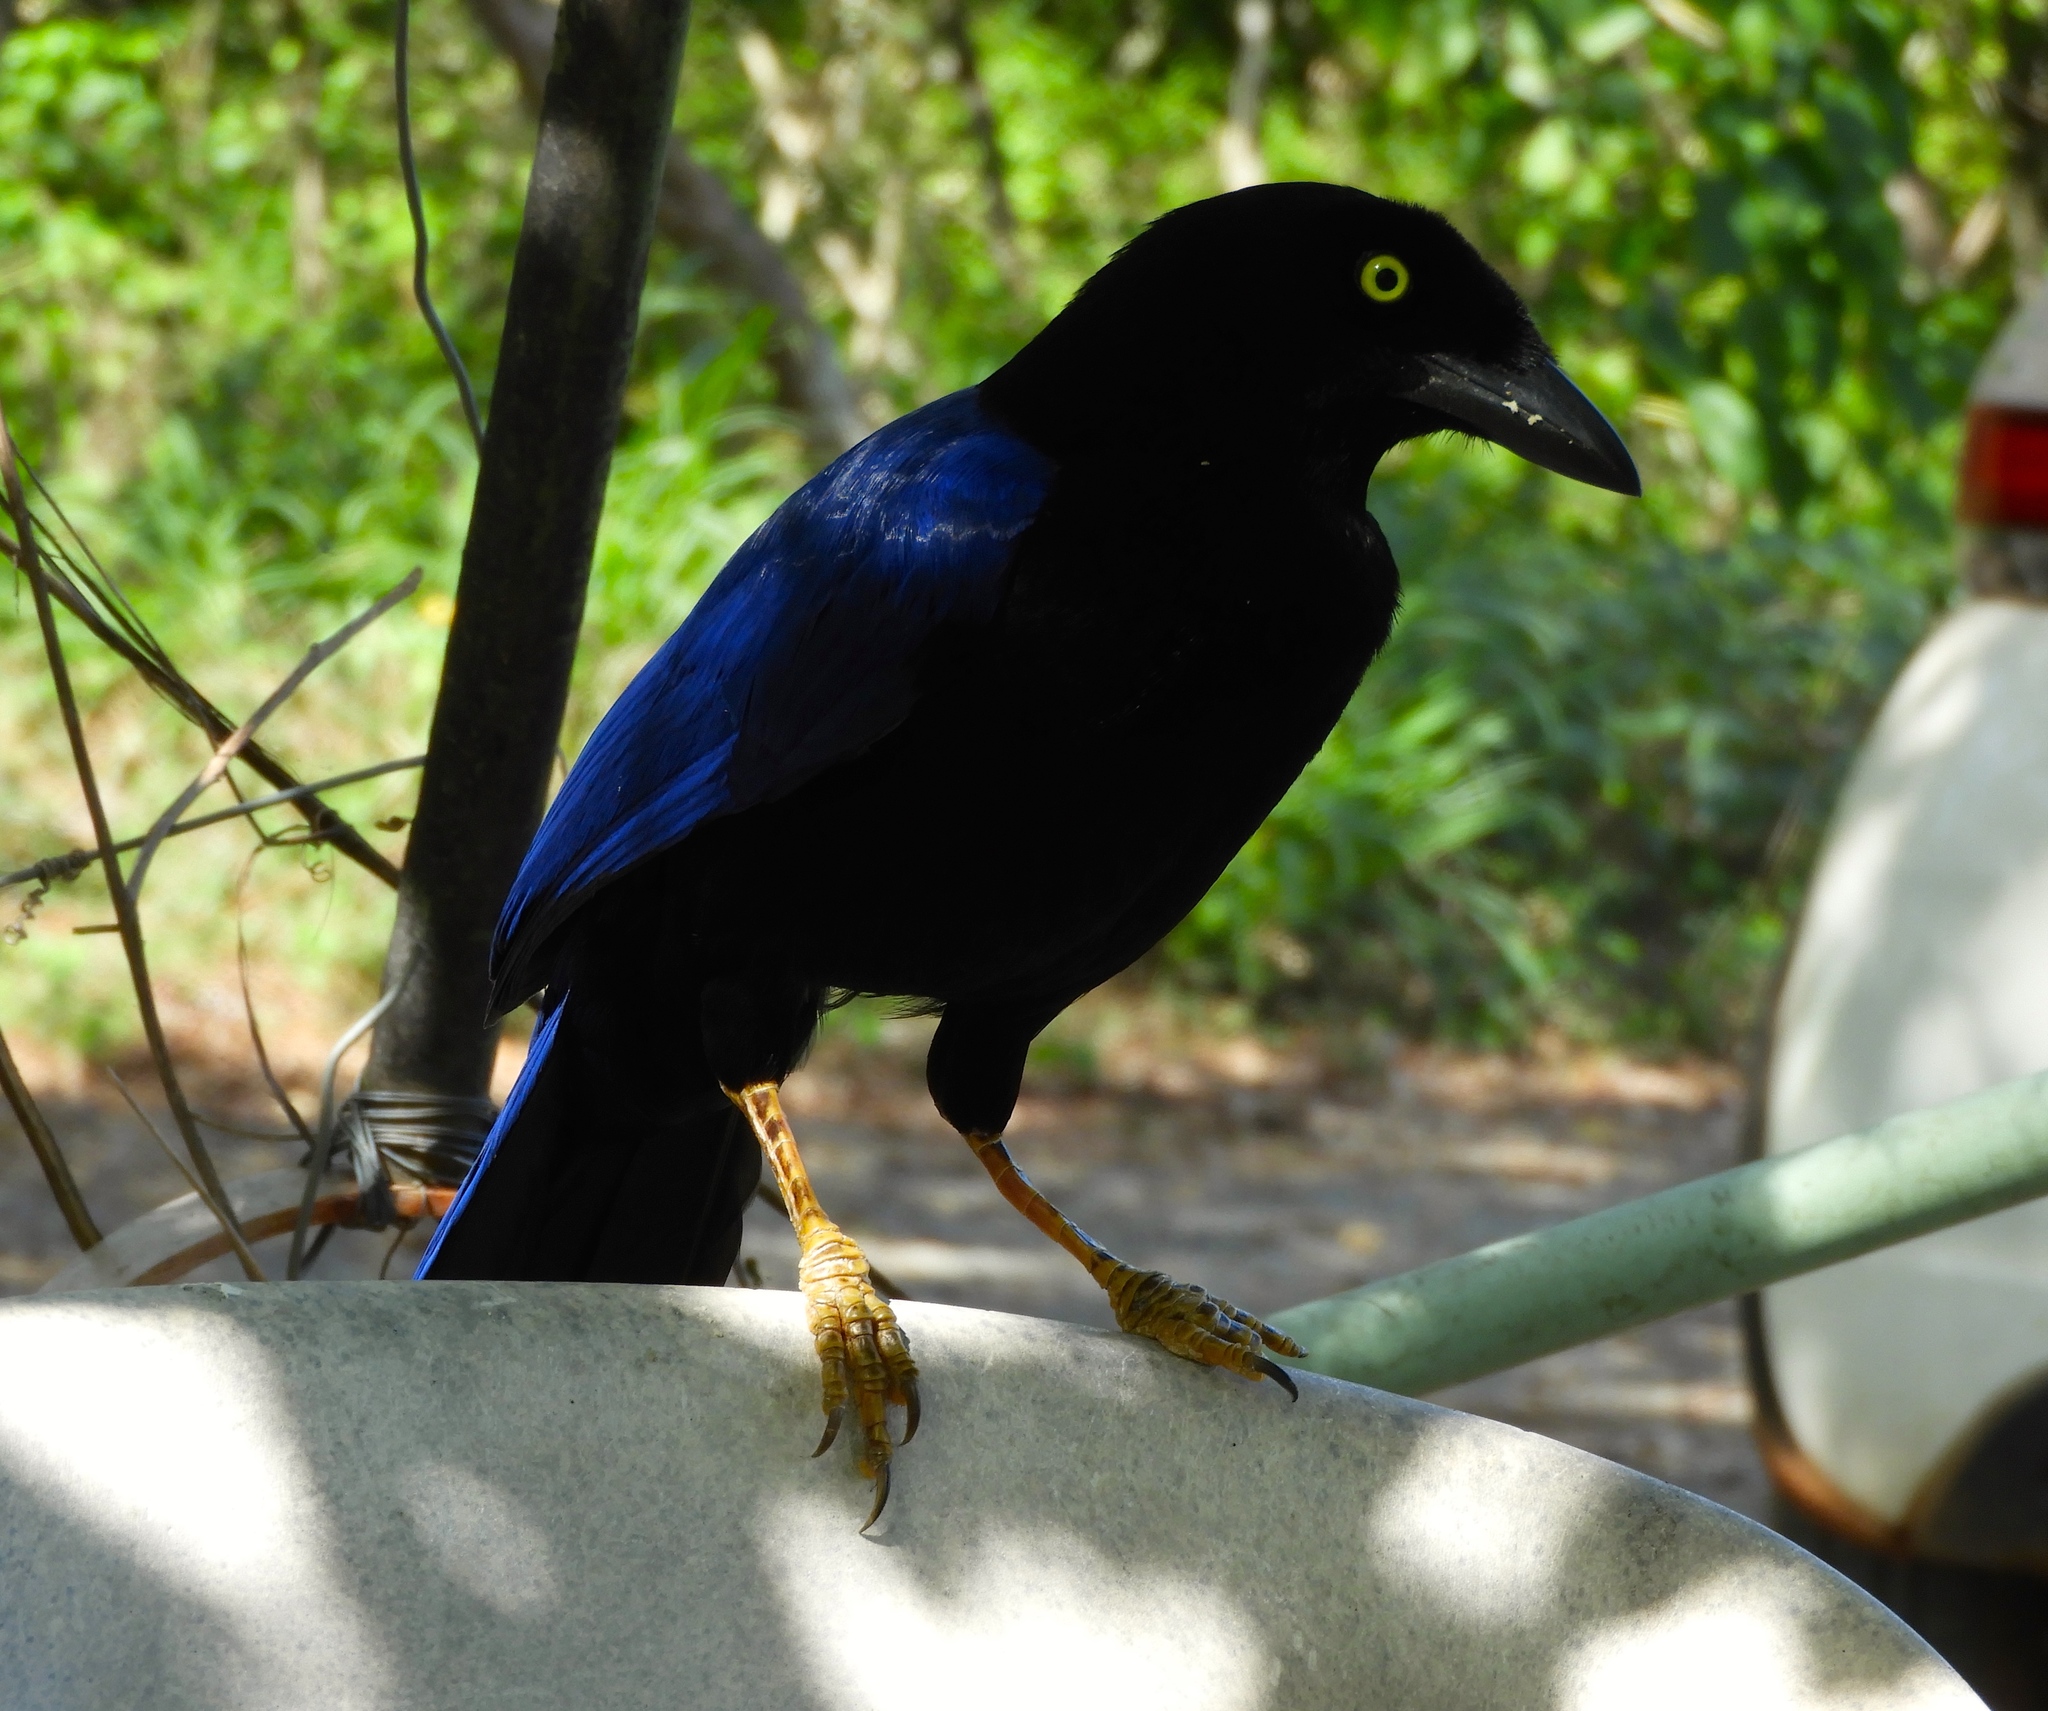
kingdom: Animalia
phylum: Chordata
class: Aves
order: Passeriformes
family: Corvidae
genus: Cyanocorax
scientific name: Cyanocorax beecheii
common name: Purplish-backed jay
